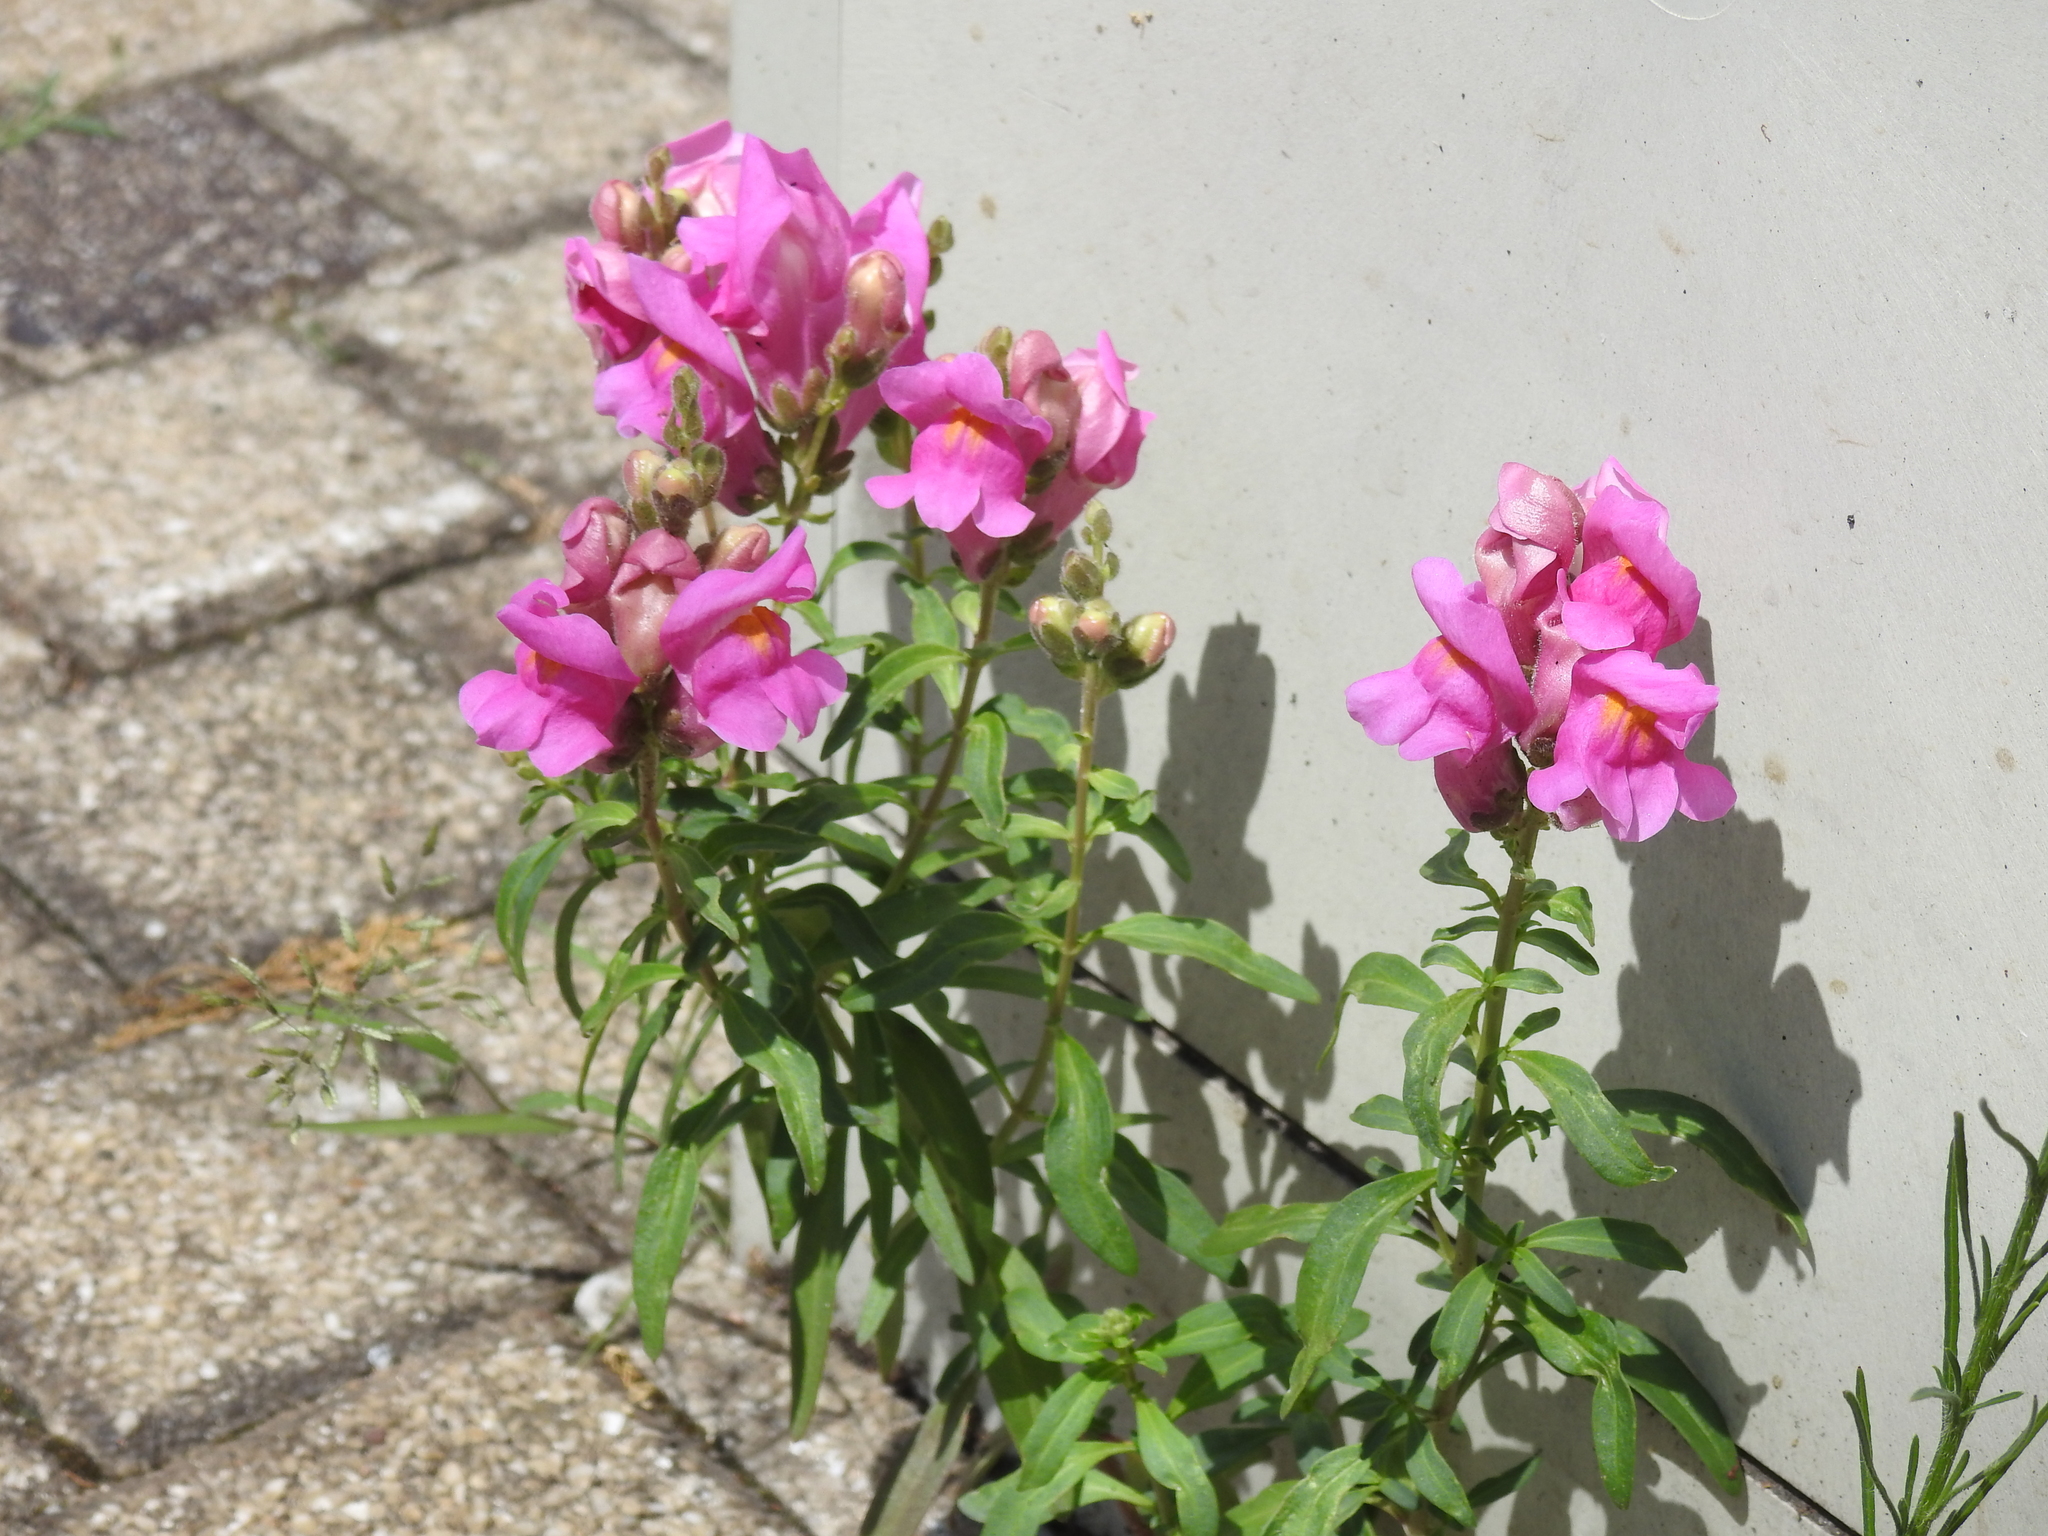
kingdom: Plantae
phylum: Tracheophyta
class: Magnoliopsida
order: Lamiales
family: Plantaginaceae
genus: Antirrhinum
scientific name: Antirrhinum majus
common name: Snapdragon
